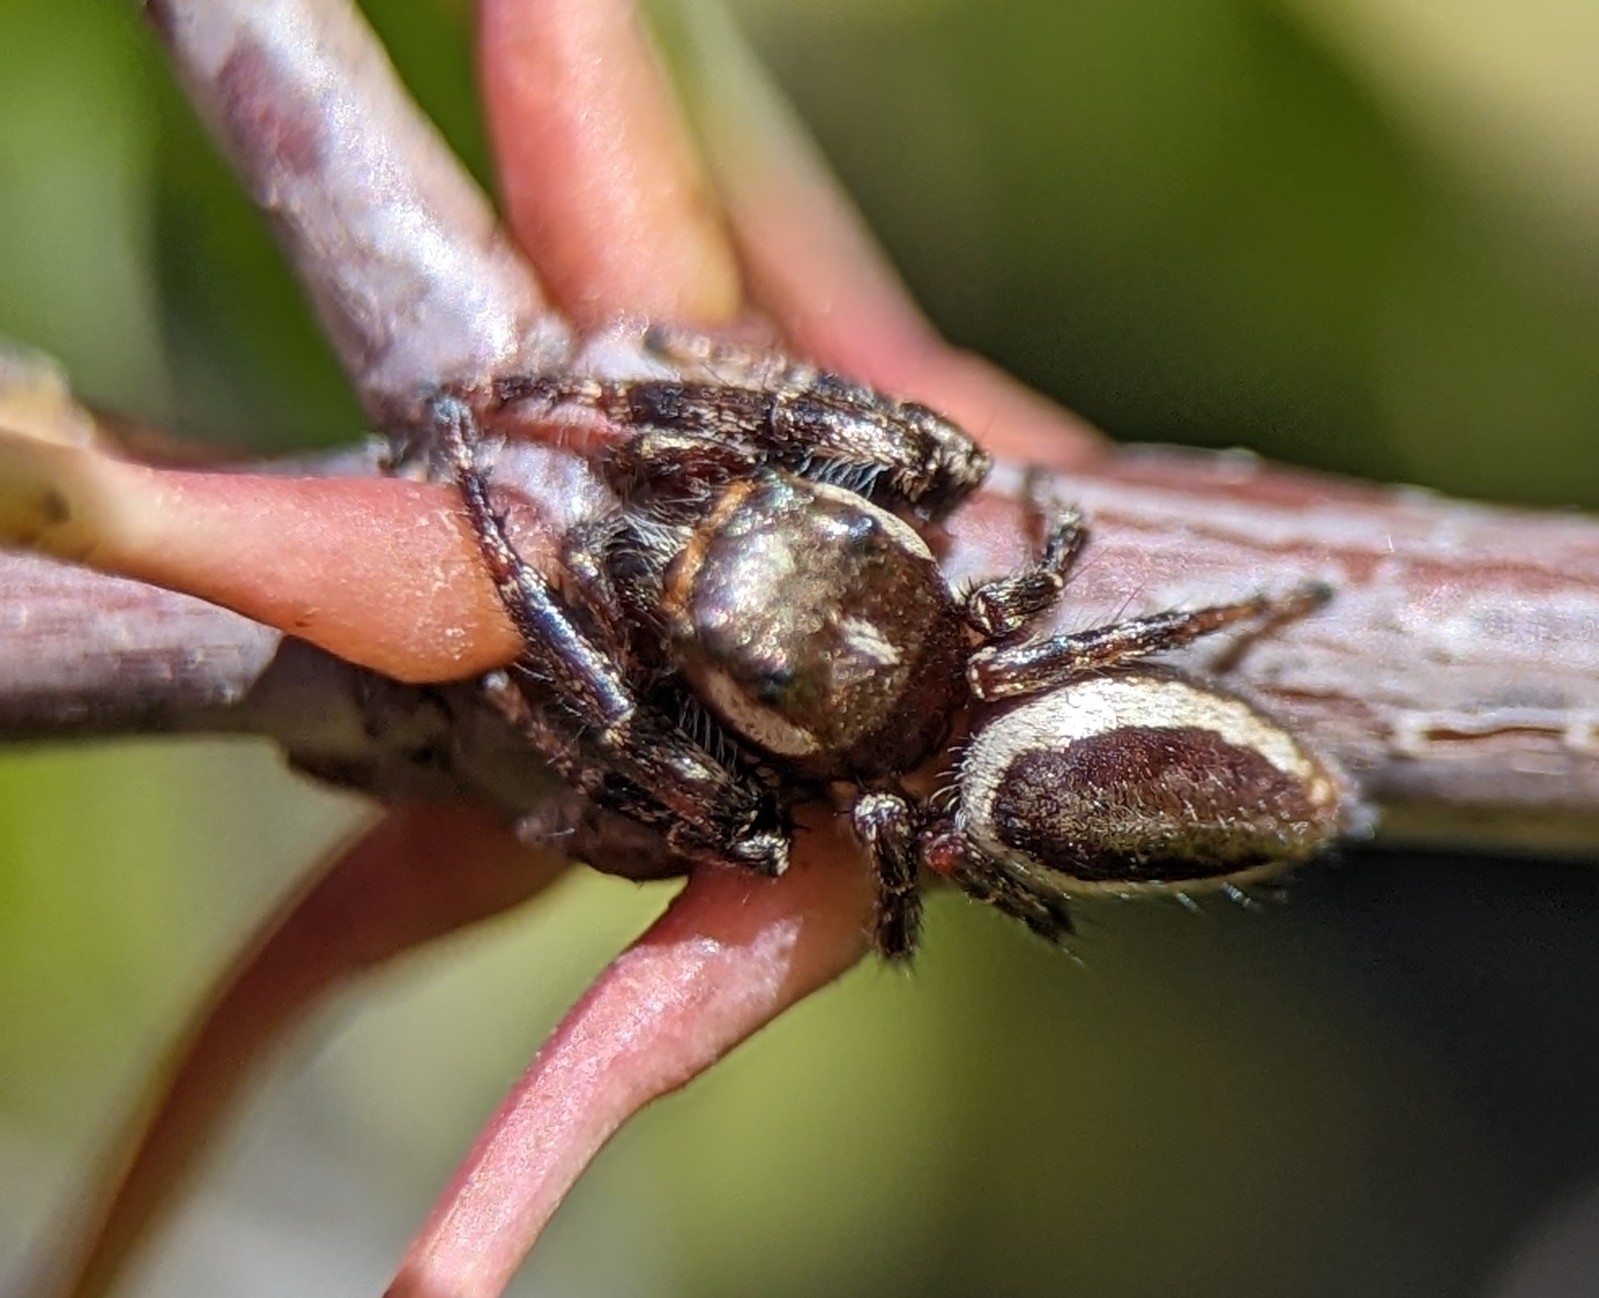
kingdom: Animalia
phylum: Arthropoda
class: Arachnida
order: Araneae
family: Salticidae
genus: Eris
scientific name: Eris militaris
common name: Bronze jumper
